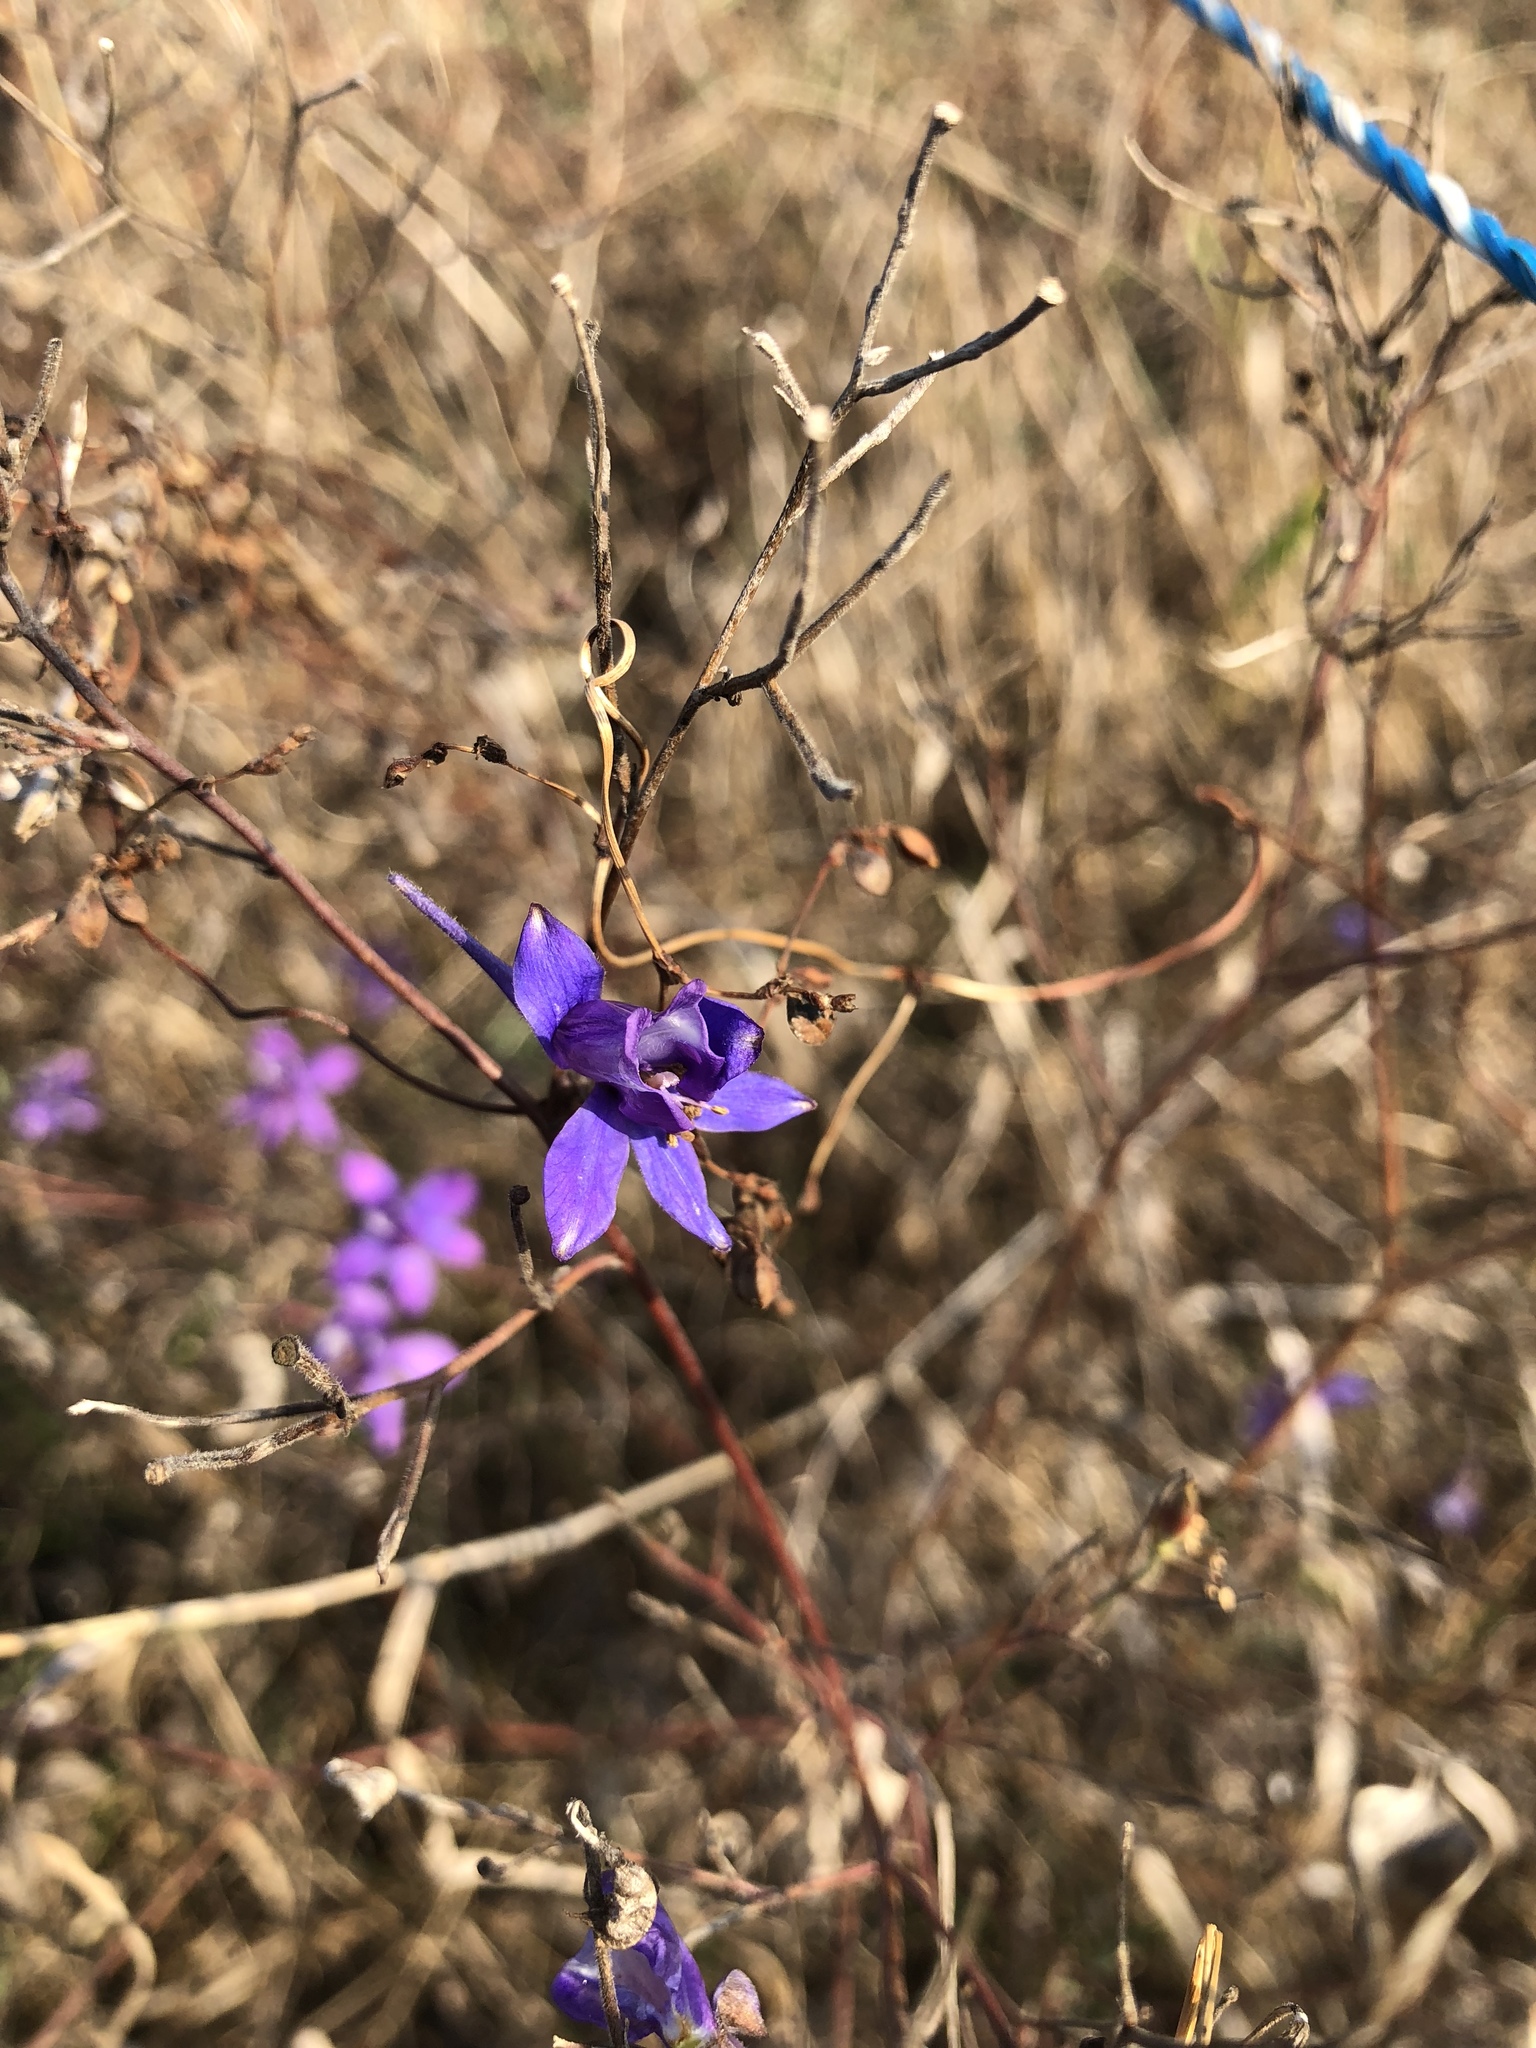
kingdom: Plantae
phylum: Tracheophyta
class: Magnoliopsida
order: Ranunculales
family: Ranunculaceae
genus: Delphinium
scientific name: Delphinium consolida
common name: Branching larkspur
